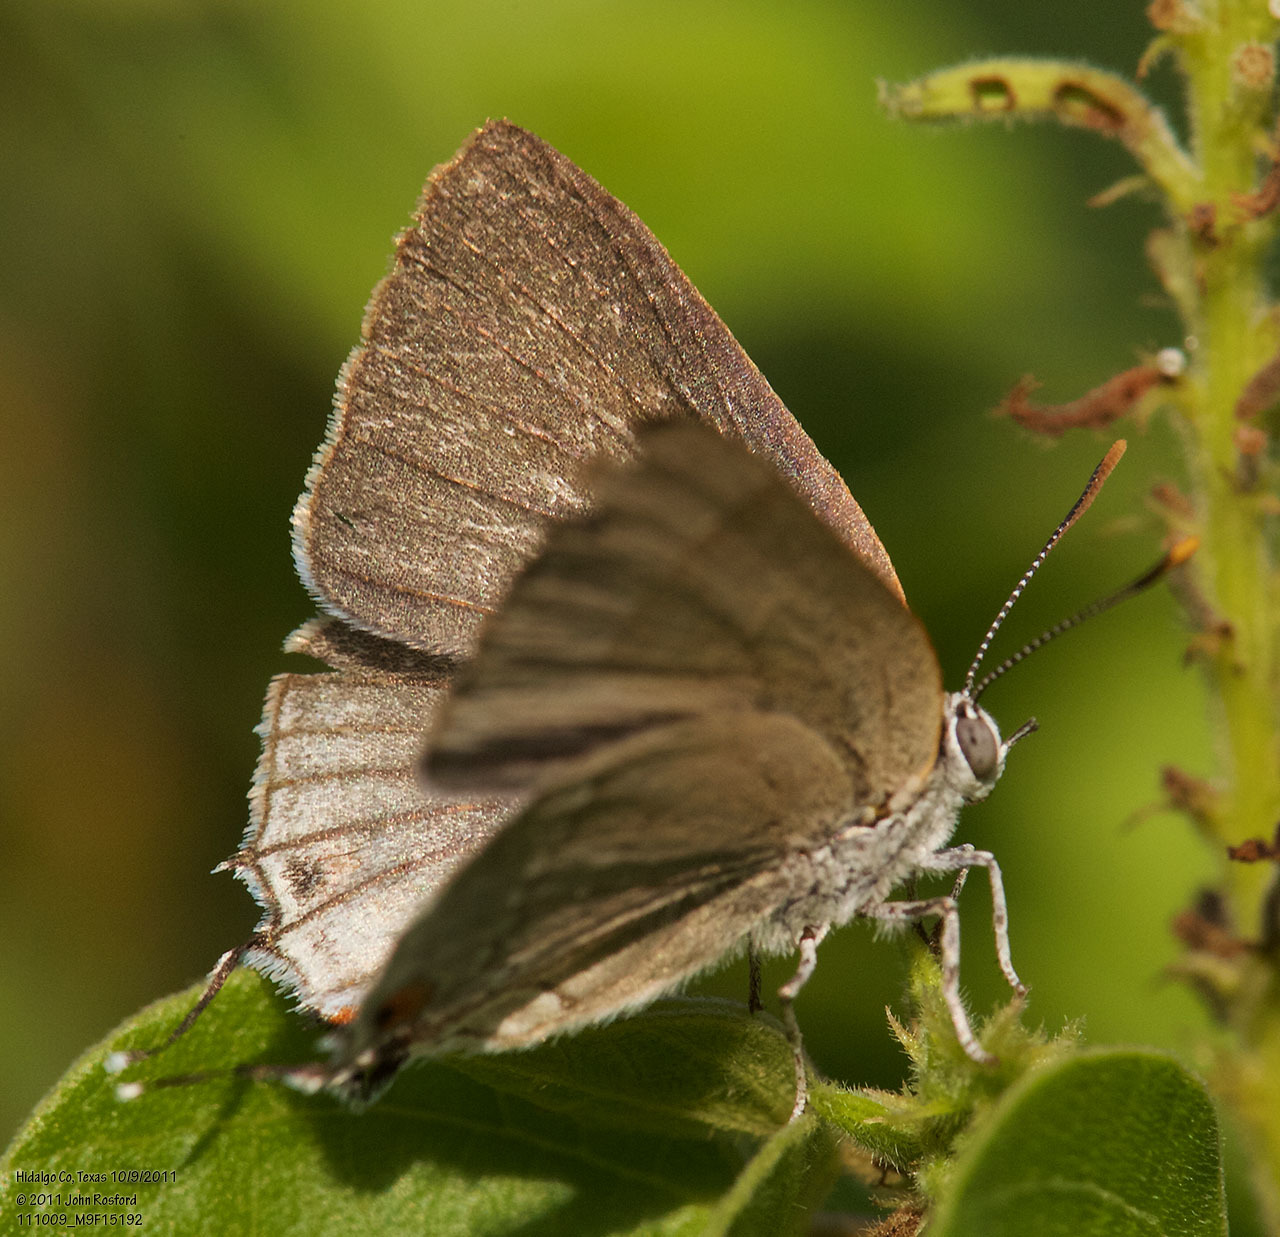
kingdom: Animalia
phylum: Arthropoda
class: Insecta
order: Lepidoptera
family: Lycaenidae
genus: Thecla
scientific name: Thecla marius
